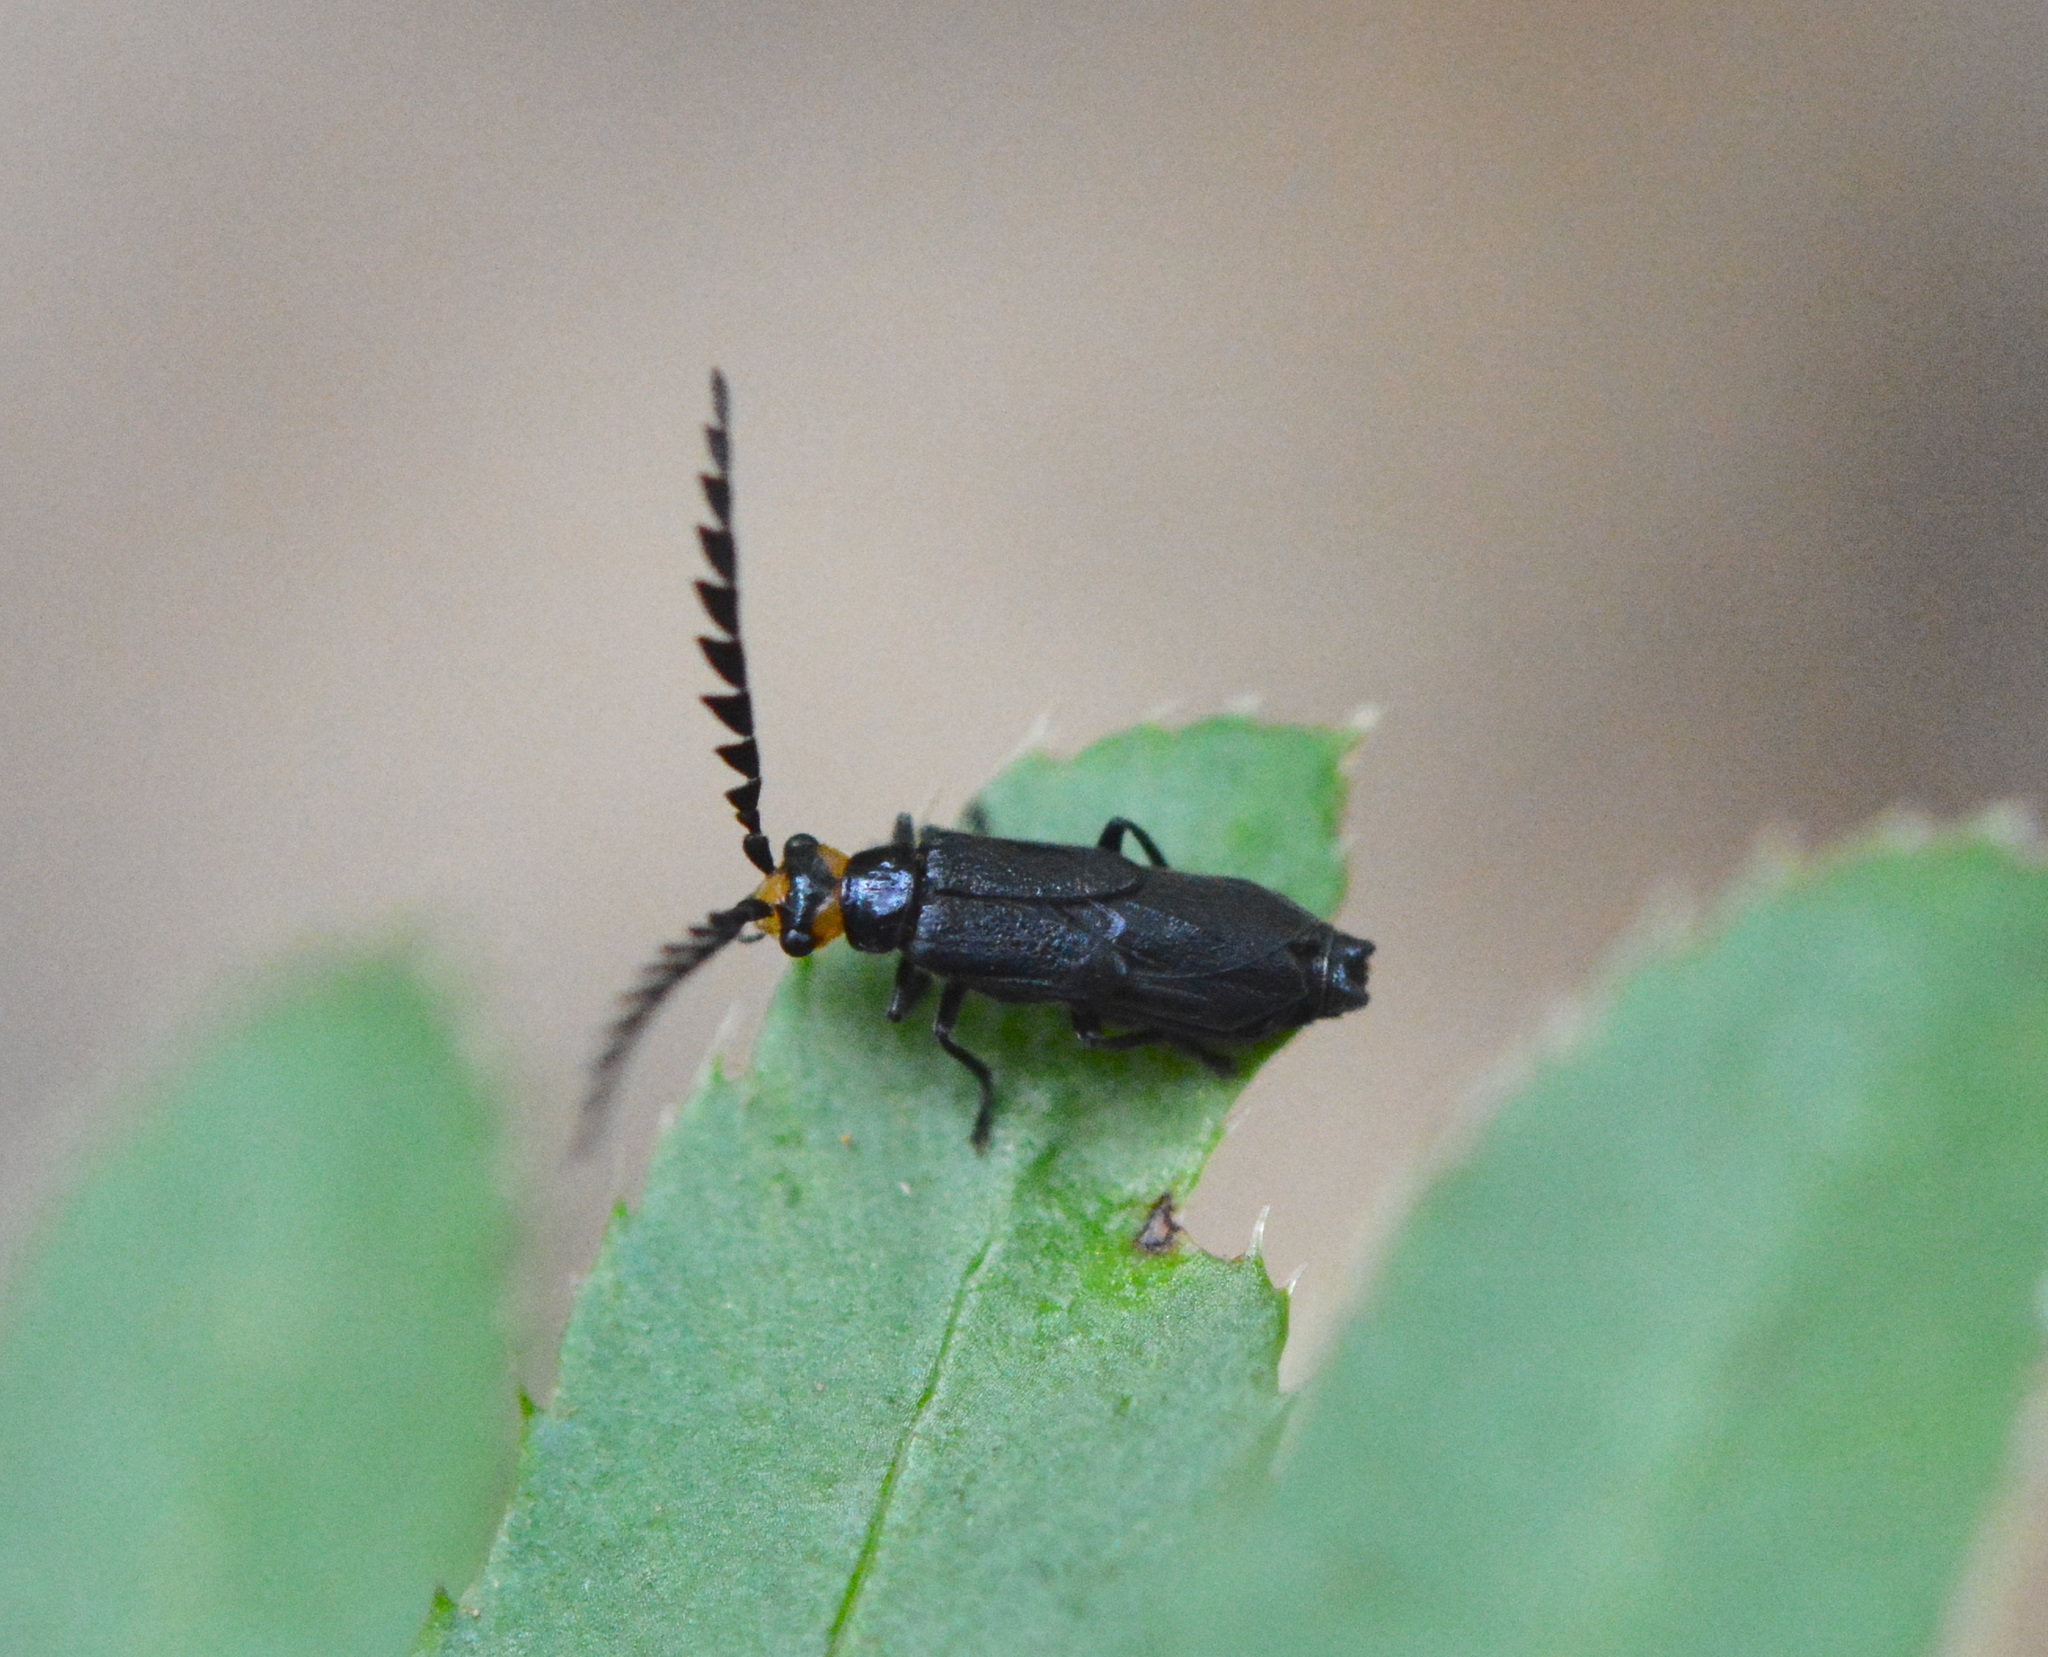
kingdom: Animalia
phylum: Arthropoda
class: Insecta
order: Coleoptera
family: Cantharidae
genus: Tytthonyx
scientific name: Tytthonyx erythrocephalus
